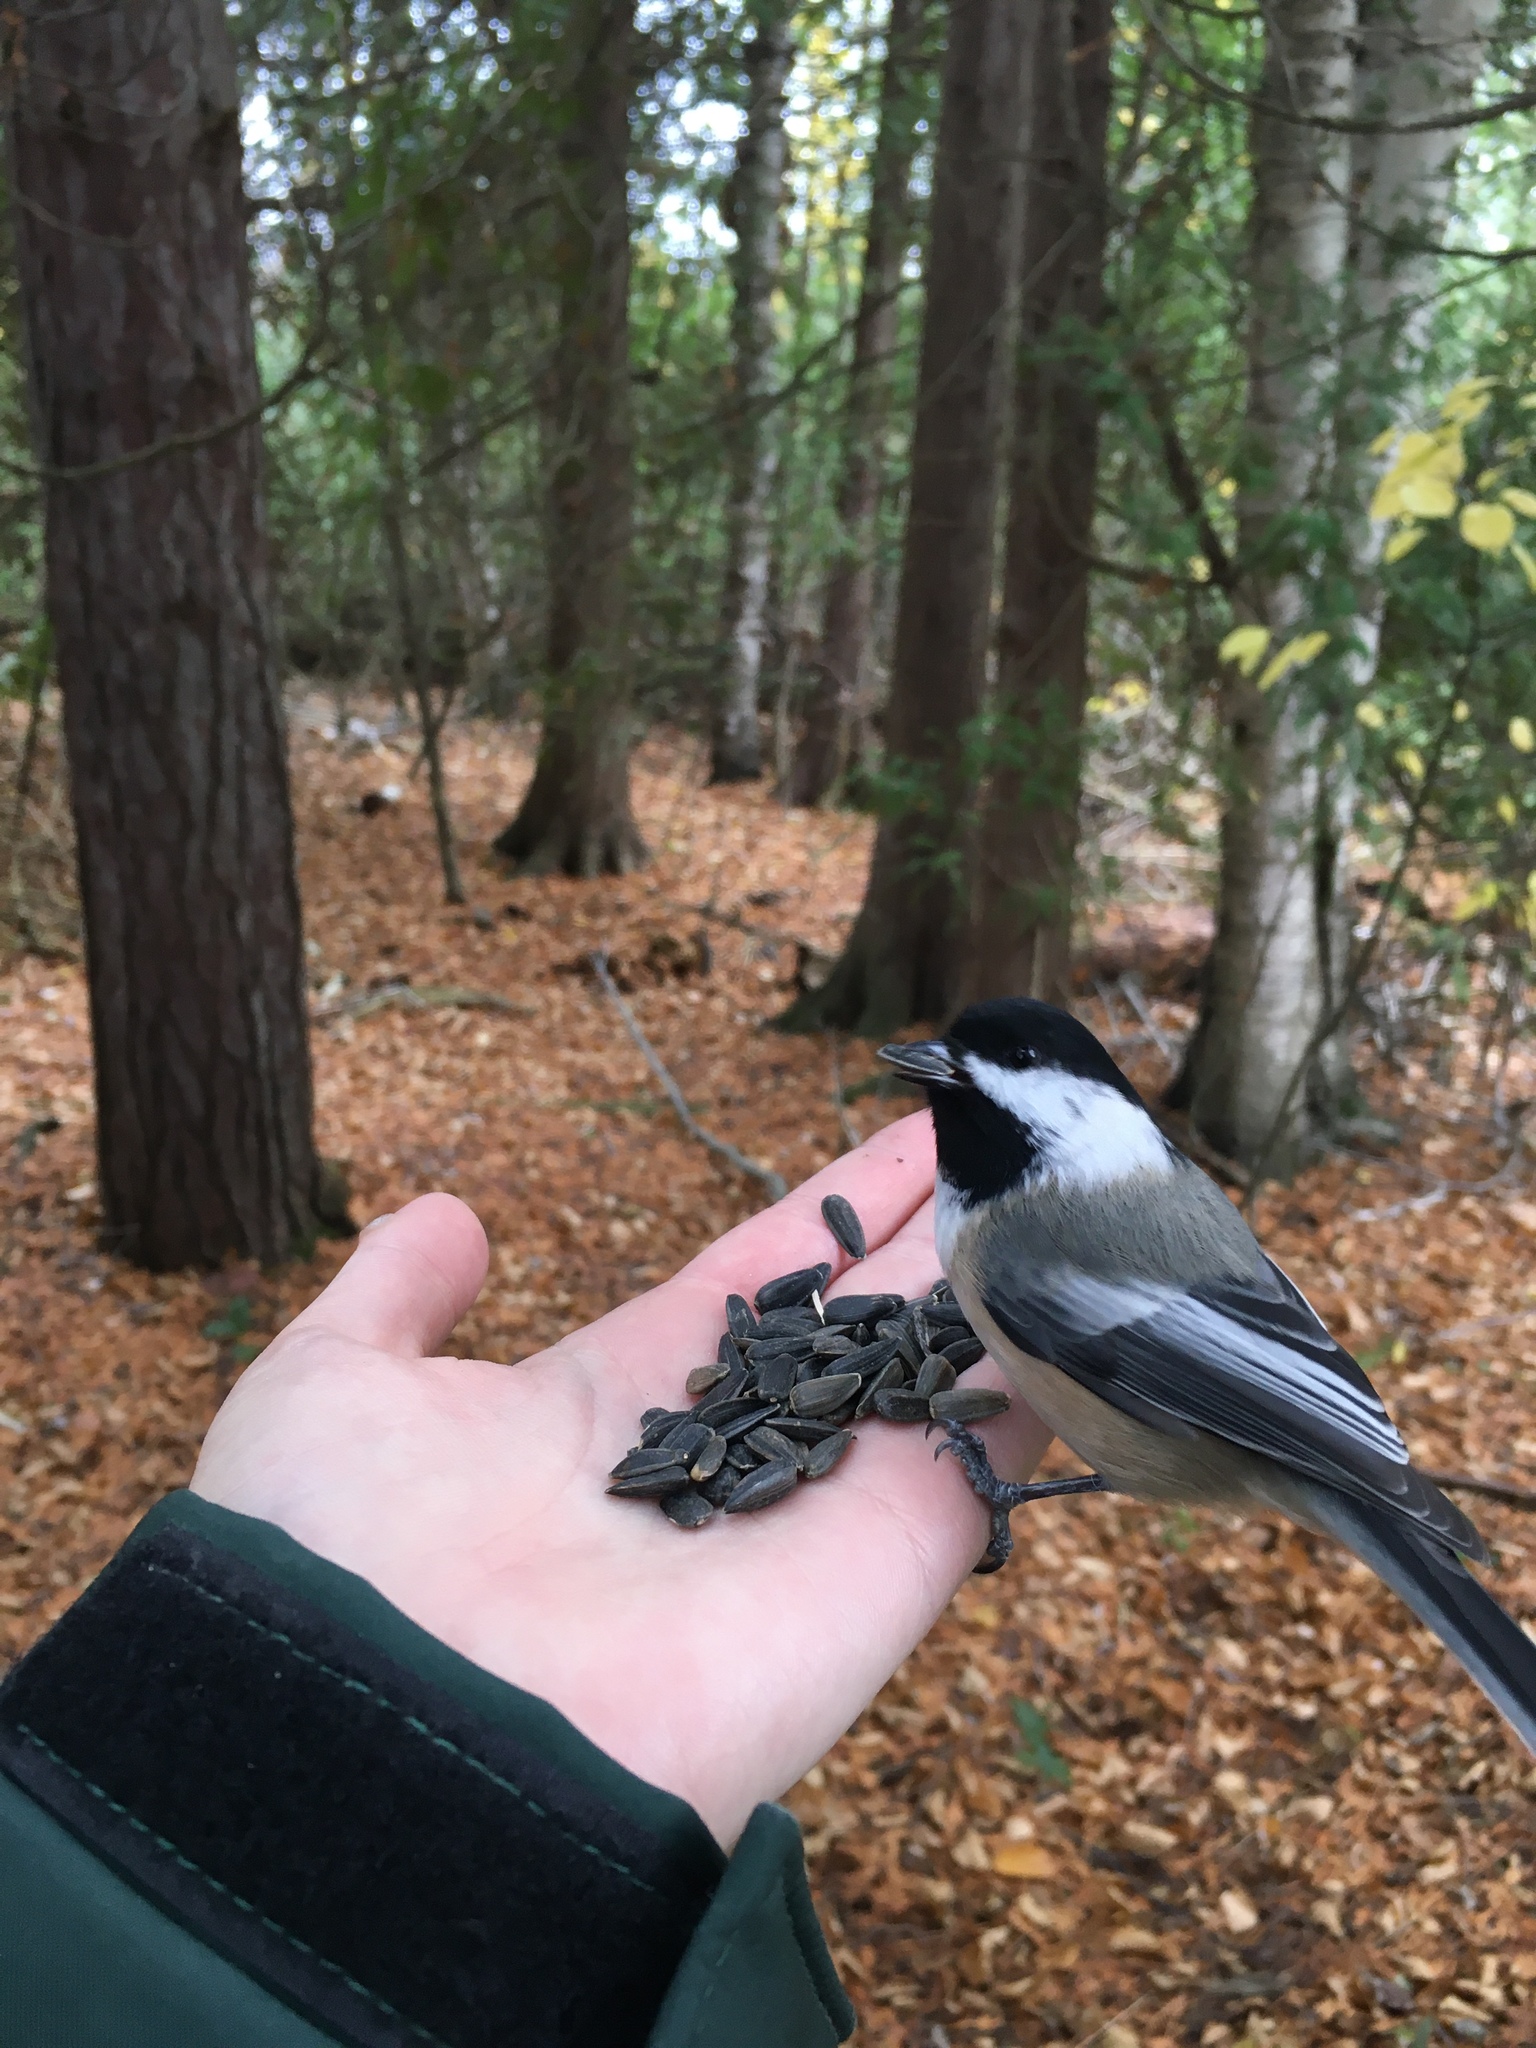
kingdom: Animalia
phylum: Chordata
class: Aves
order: Passeriformes
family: Paridae
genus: Poecile
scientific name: Poecile atricapillus
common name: Black-capped chickadee
